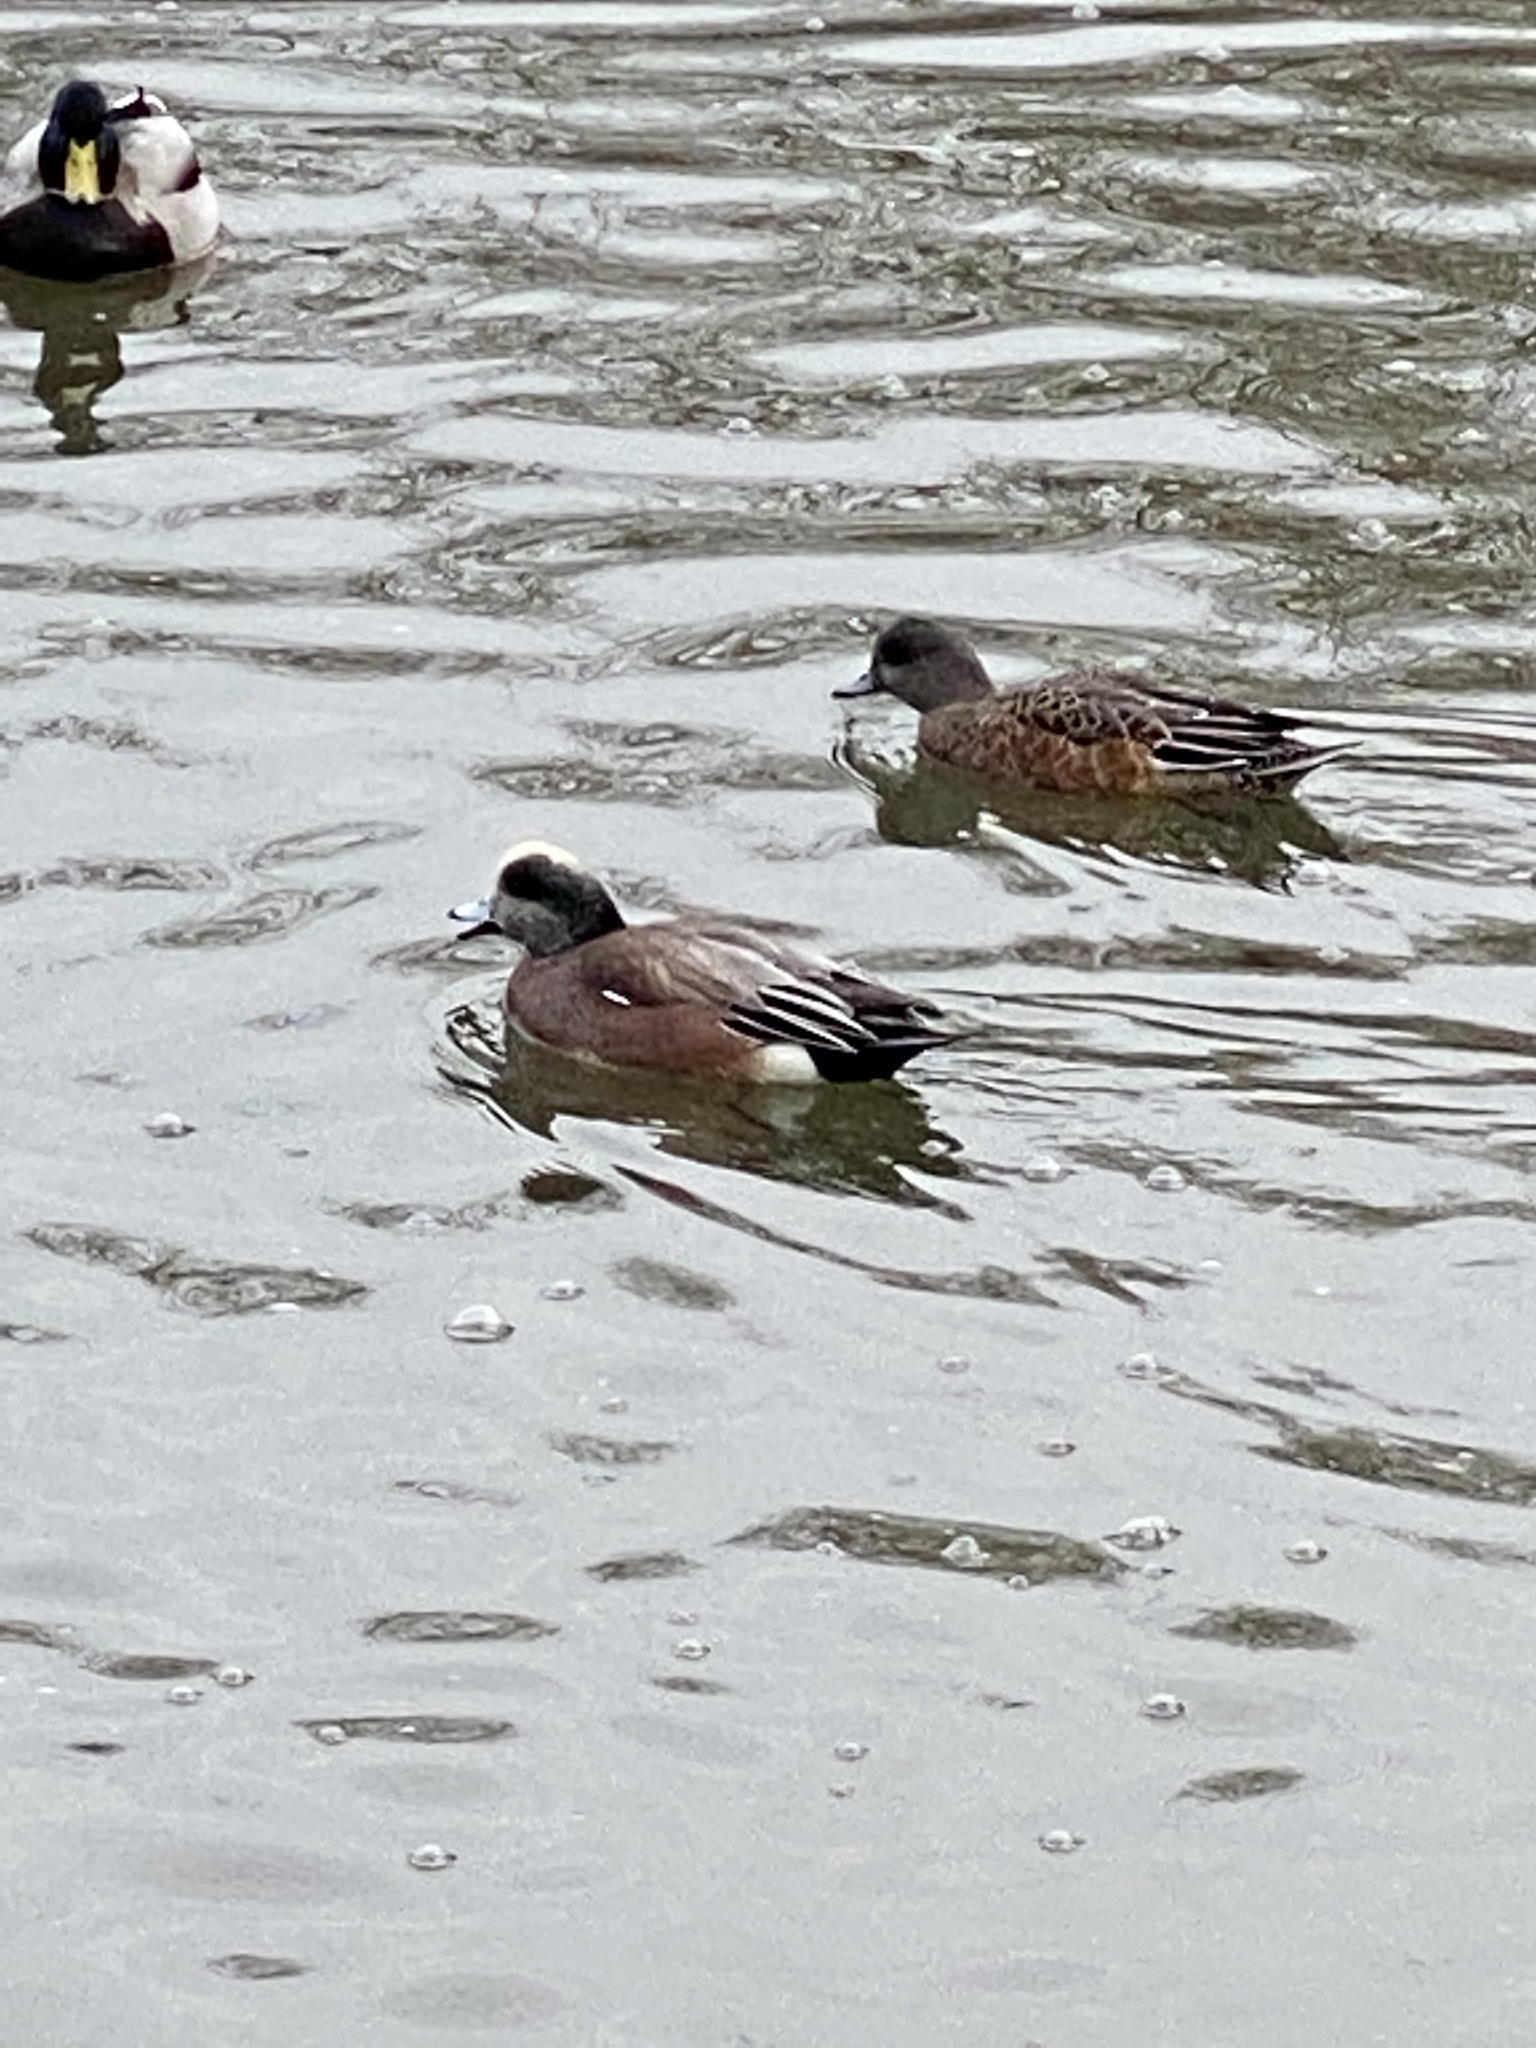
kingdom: Animalia
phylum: Chordata
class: Aves
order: Anseriformes
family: Anatidae
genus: Mareca
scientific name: Mareca americana
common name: American wigeon
